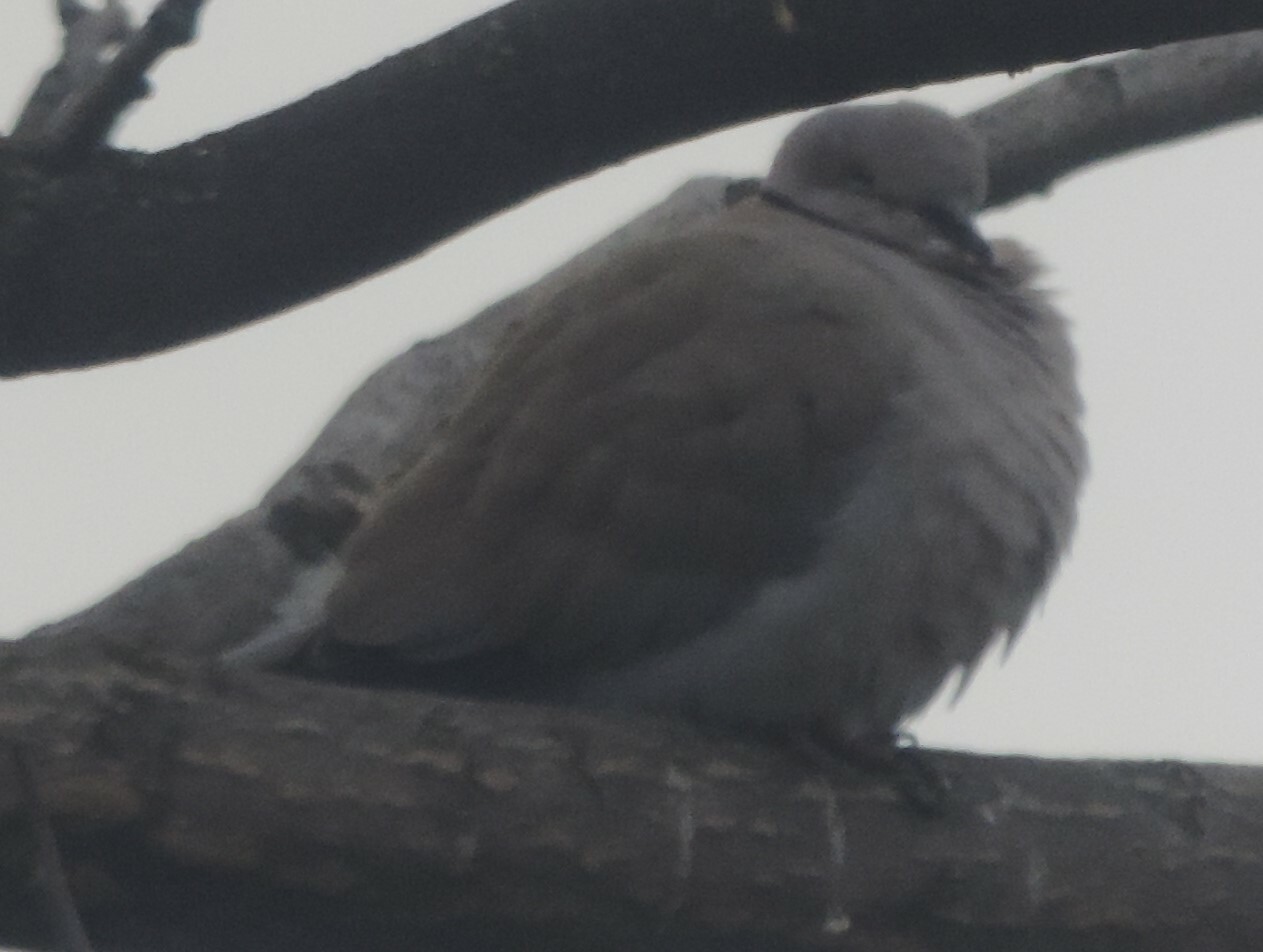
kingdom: Animalia
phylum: Chordata
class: Aves
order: Columbiformes
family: Columbidae
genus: Streptopelia
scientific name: Streptopelia decaocto
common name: Eurasian collared dove
